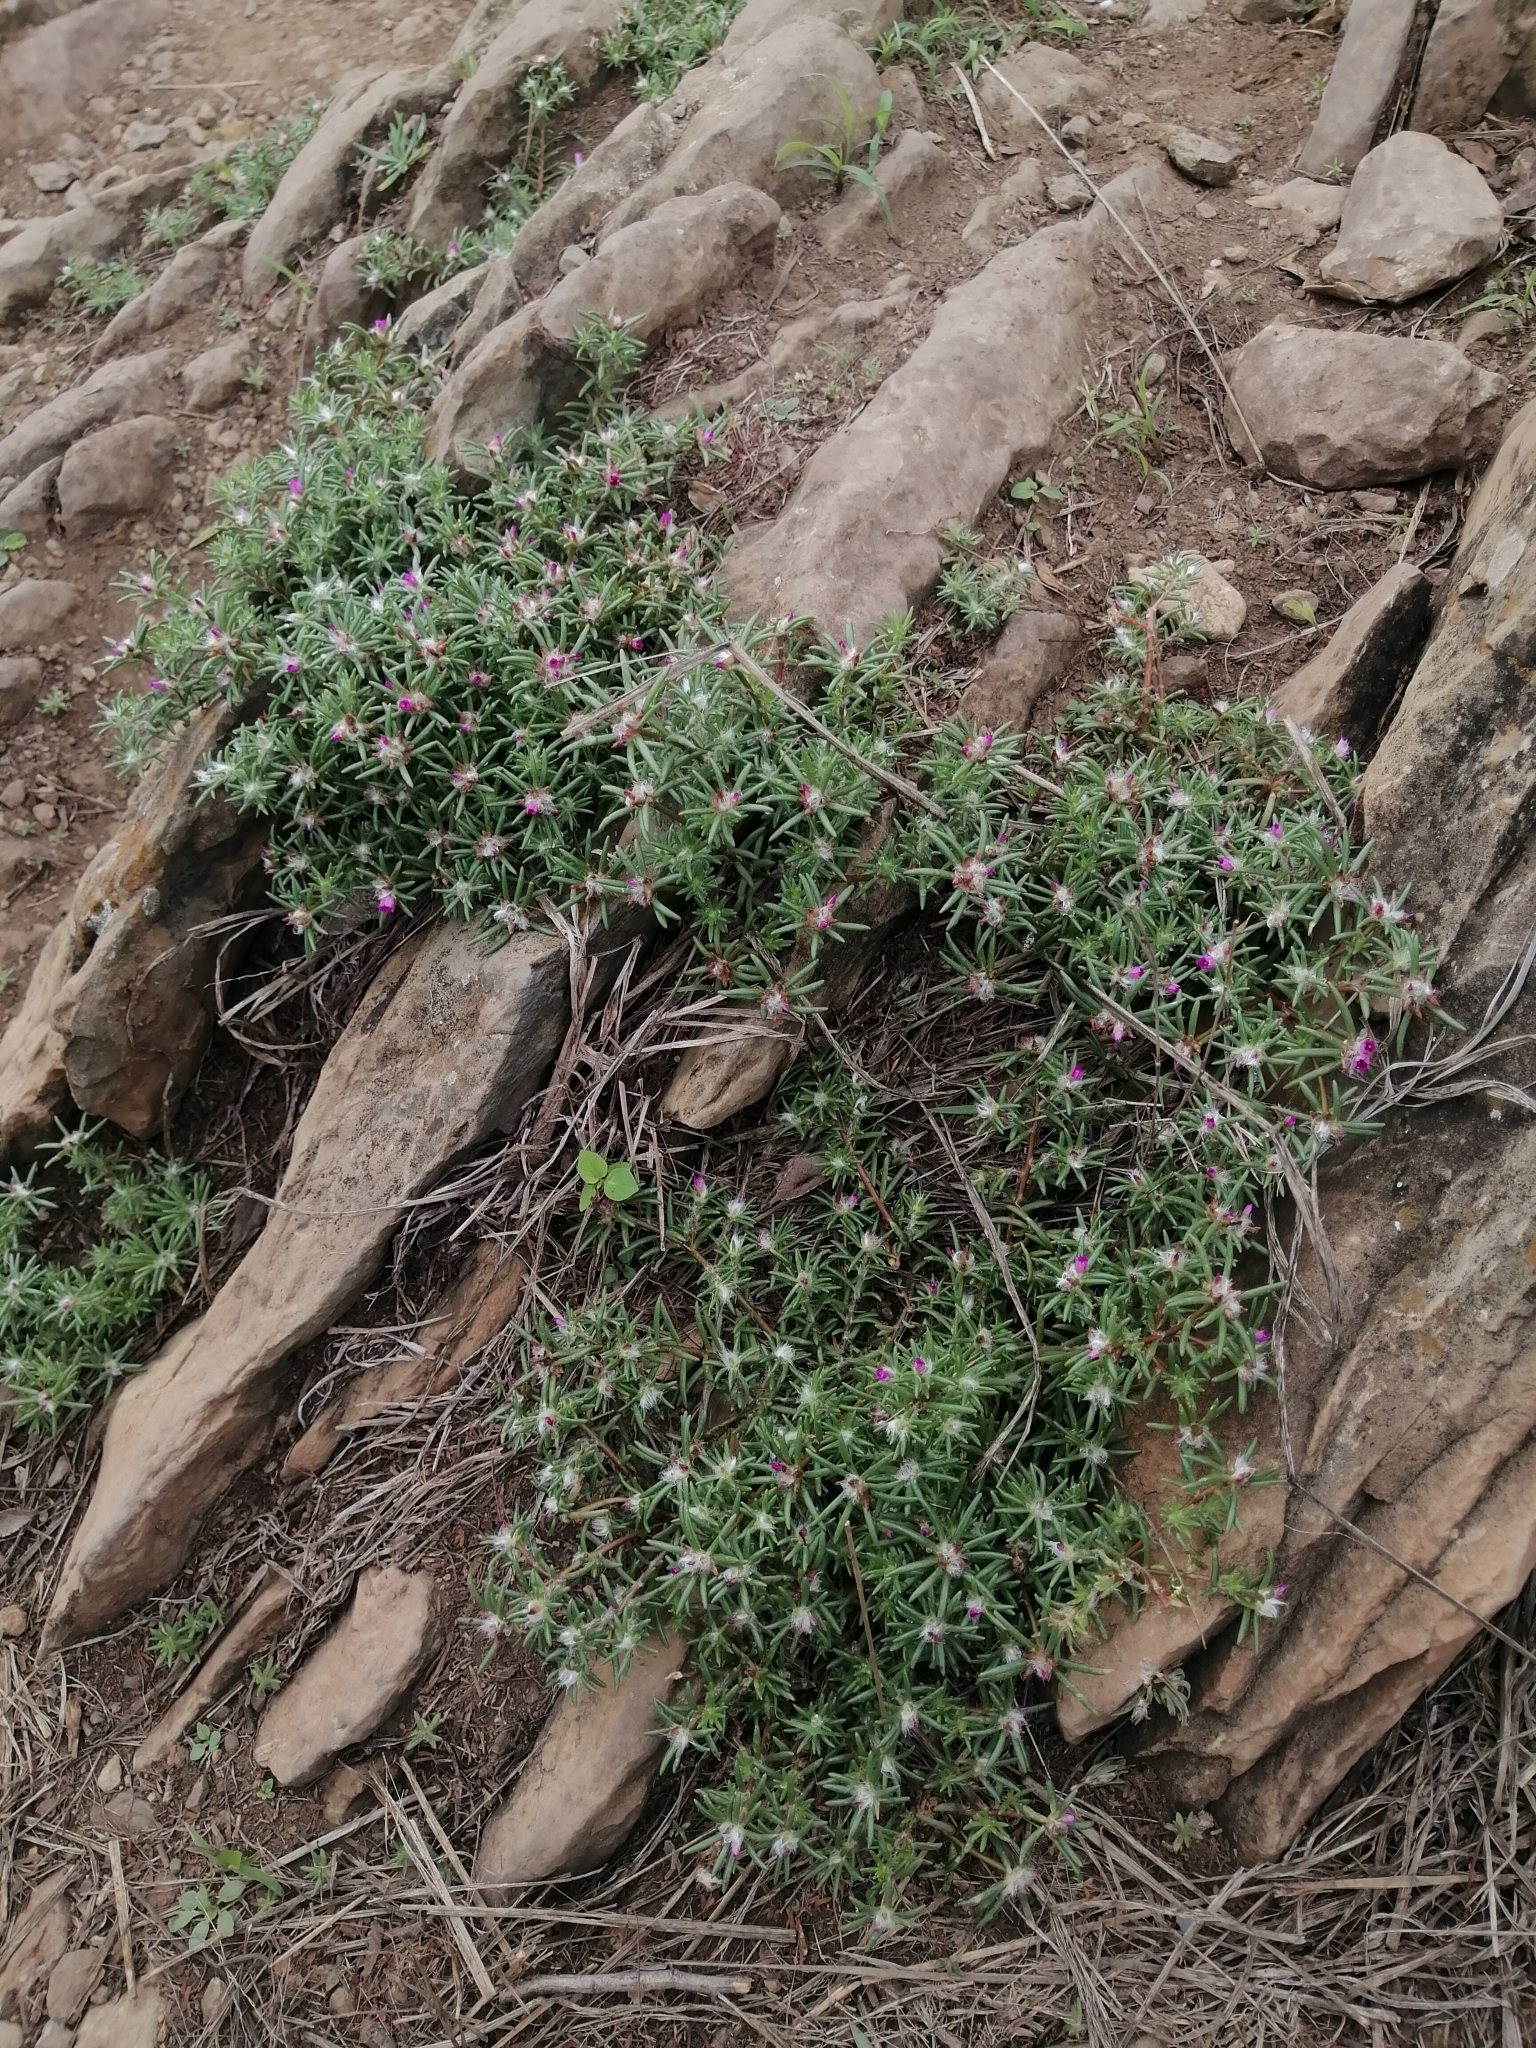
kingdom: Plantae
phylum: Tracheophyta
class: Magnoliopsida
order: Caryophyllales
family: Portulacaceae
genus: Portulaca
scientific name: Portulaca pilosa
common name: Kiss me quick
